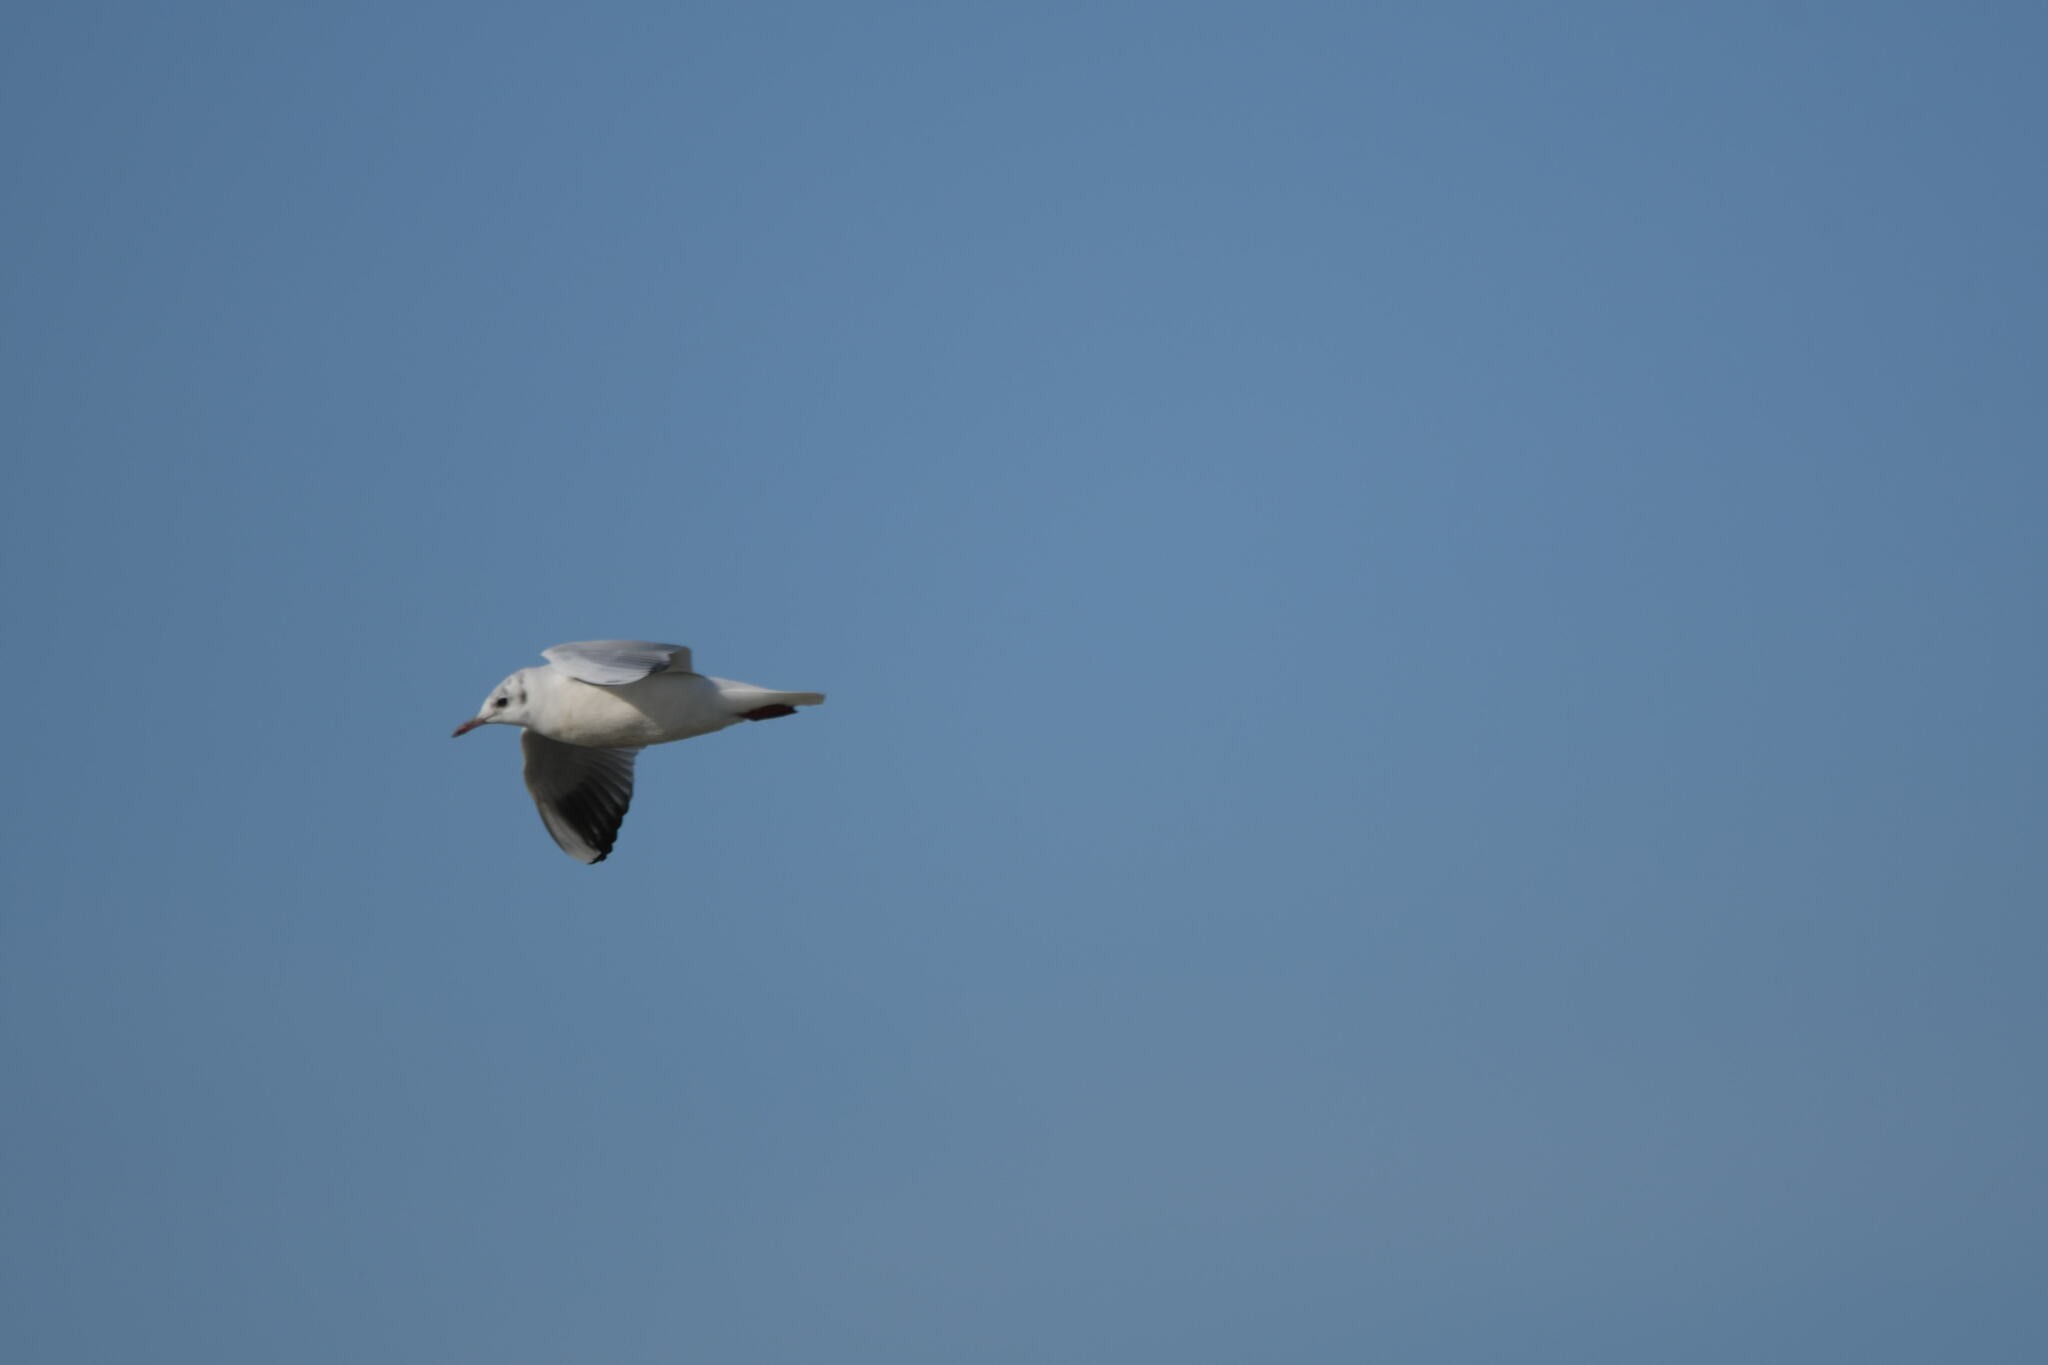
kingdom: Animalia
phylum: Chordata
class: Aves
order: Charadriiformes
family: Laridae
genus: Chroicocephalus
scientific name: Chroicocephalus ridibundus
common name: Black-headed gull
